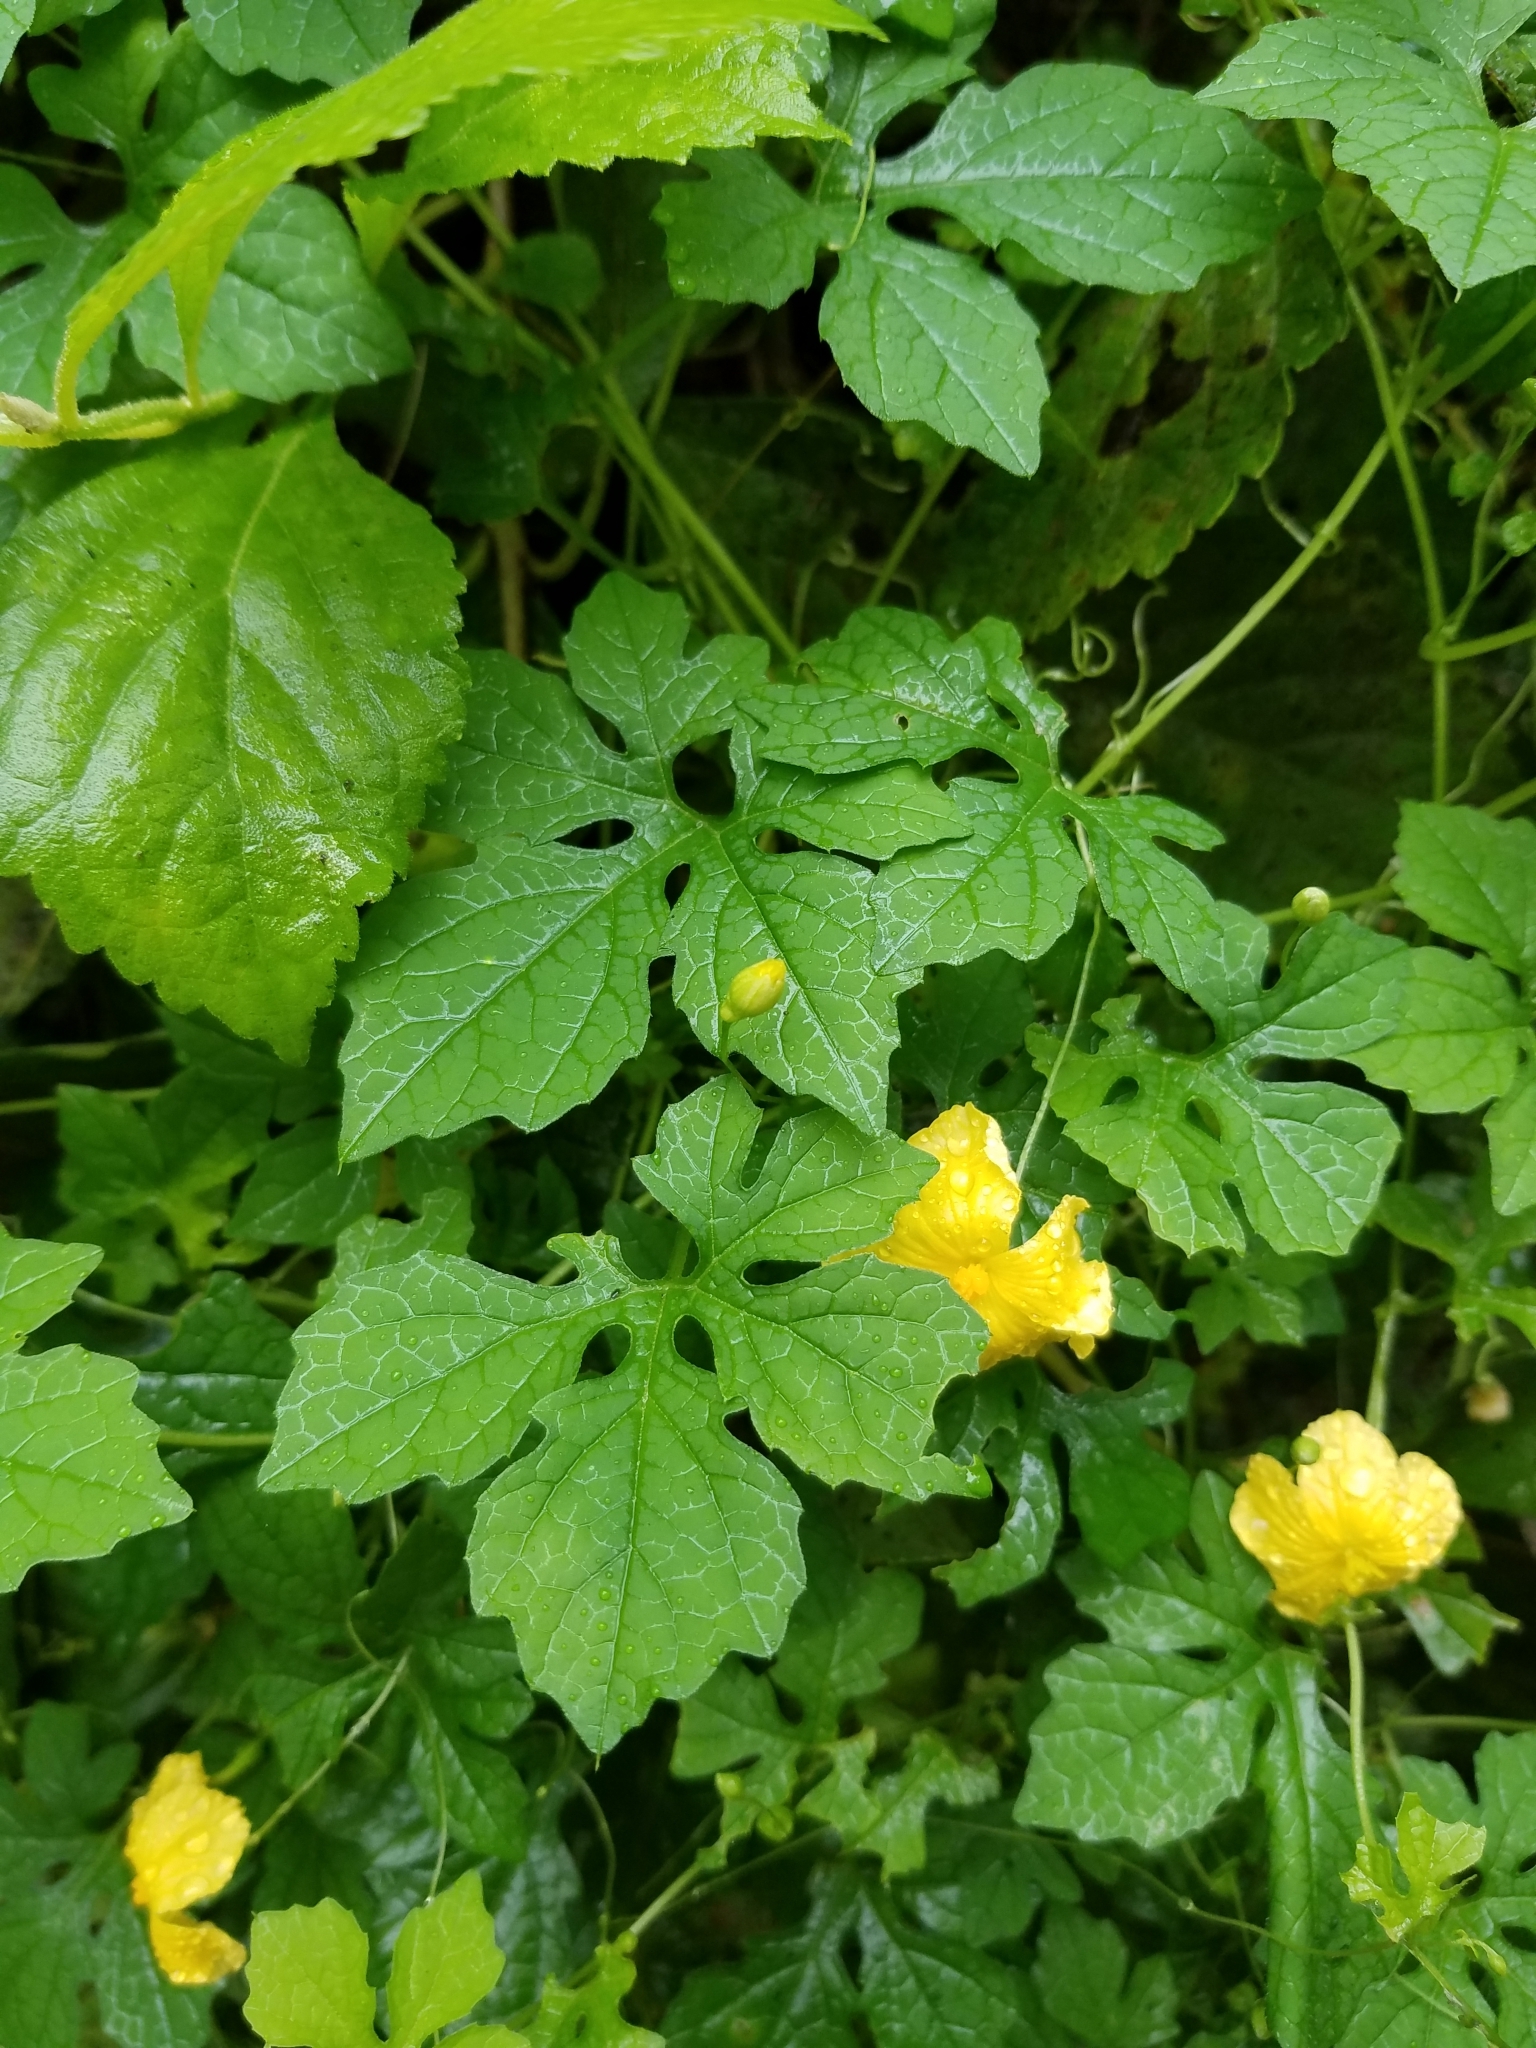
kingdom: Plantae
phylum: Tracheophyta
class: Magnoliopsida
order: Cucurbitales
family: Cucurbitaceae
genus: Momordica
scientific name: Momordica charantia
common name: Balsampear
